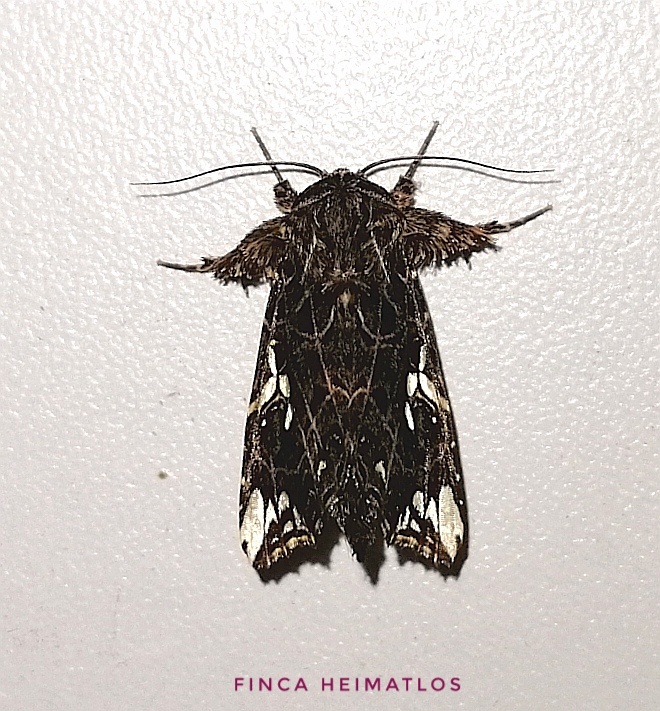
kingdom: Animalia
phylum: Arthropoda
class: Insecta
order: Lepidoptera
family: Noctuidae
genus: Argyrosticta
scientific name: Argyrosticta meres
